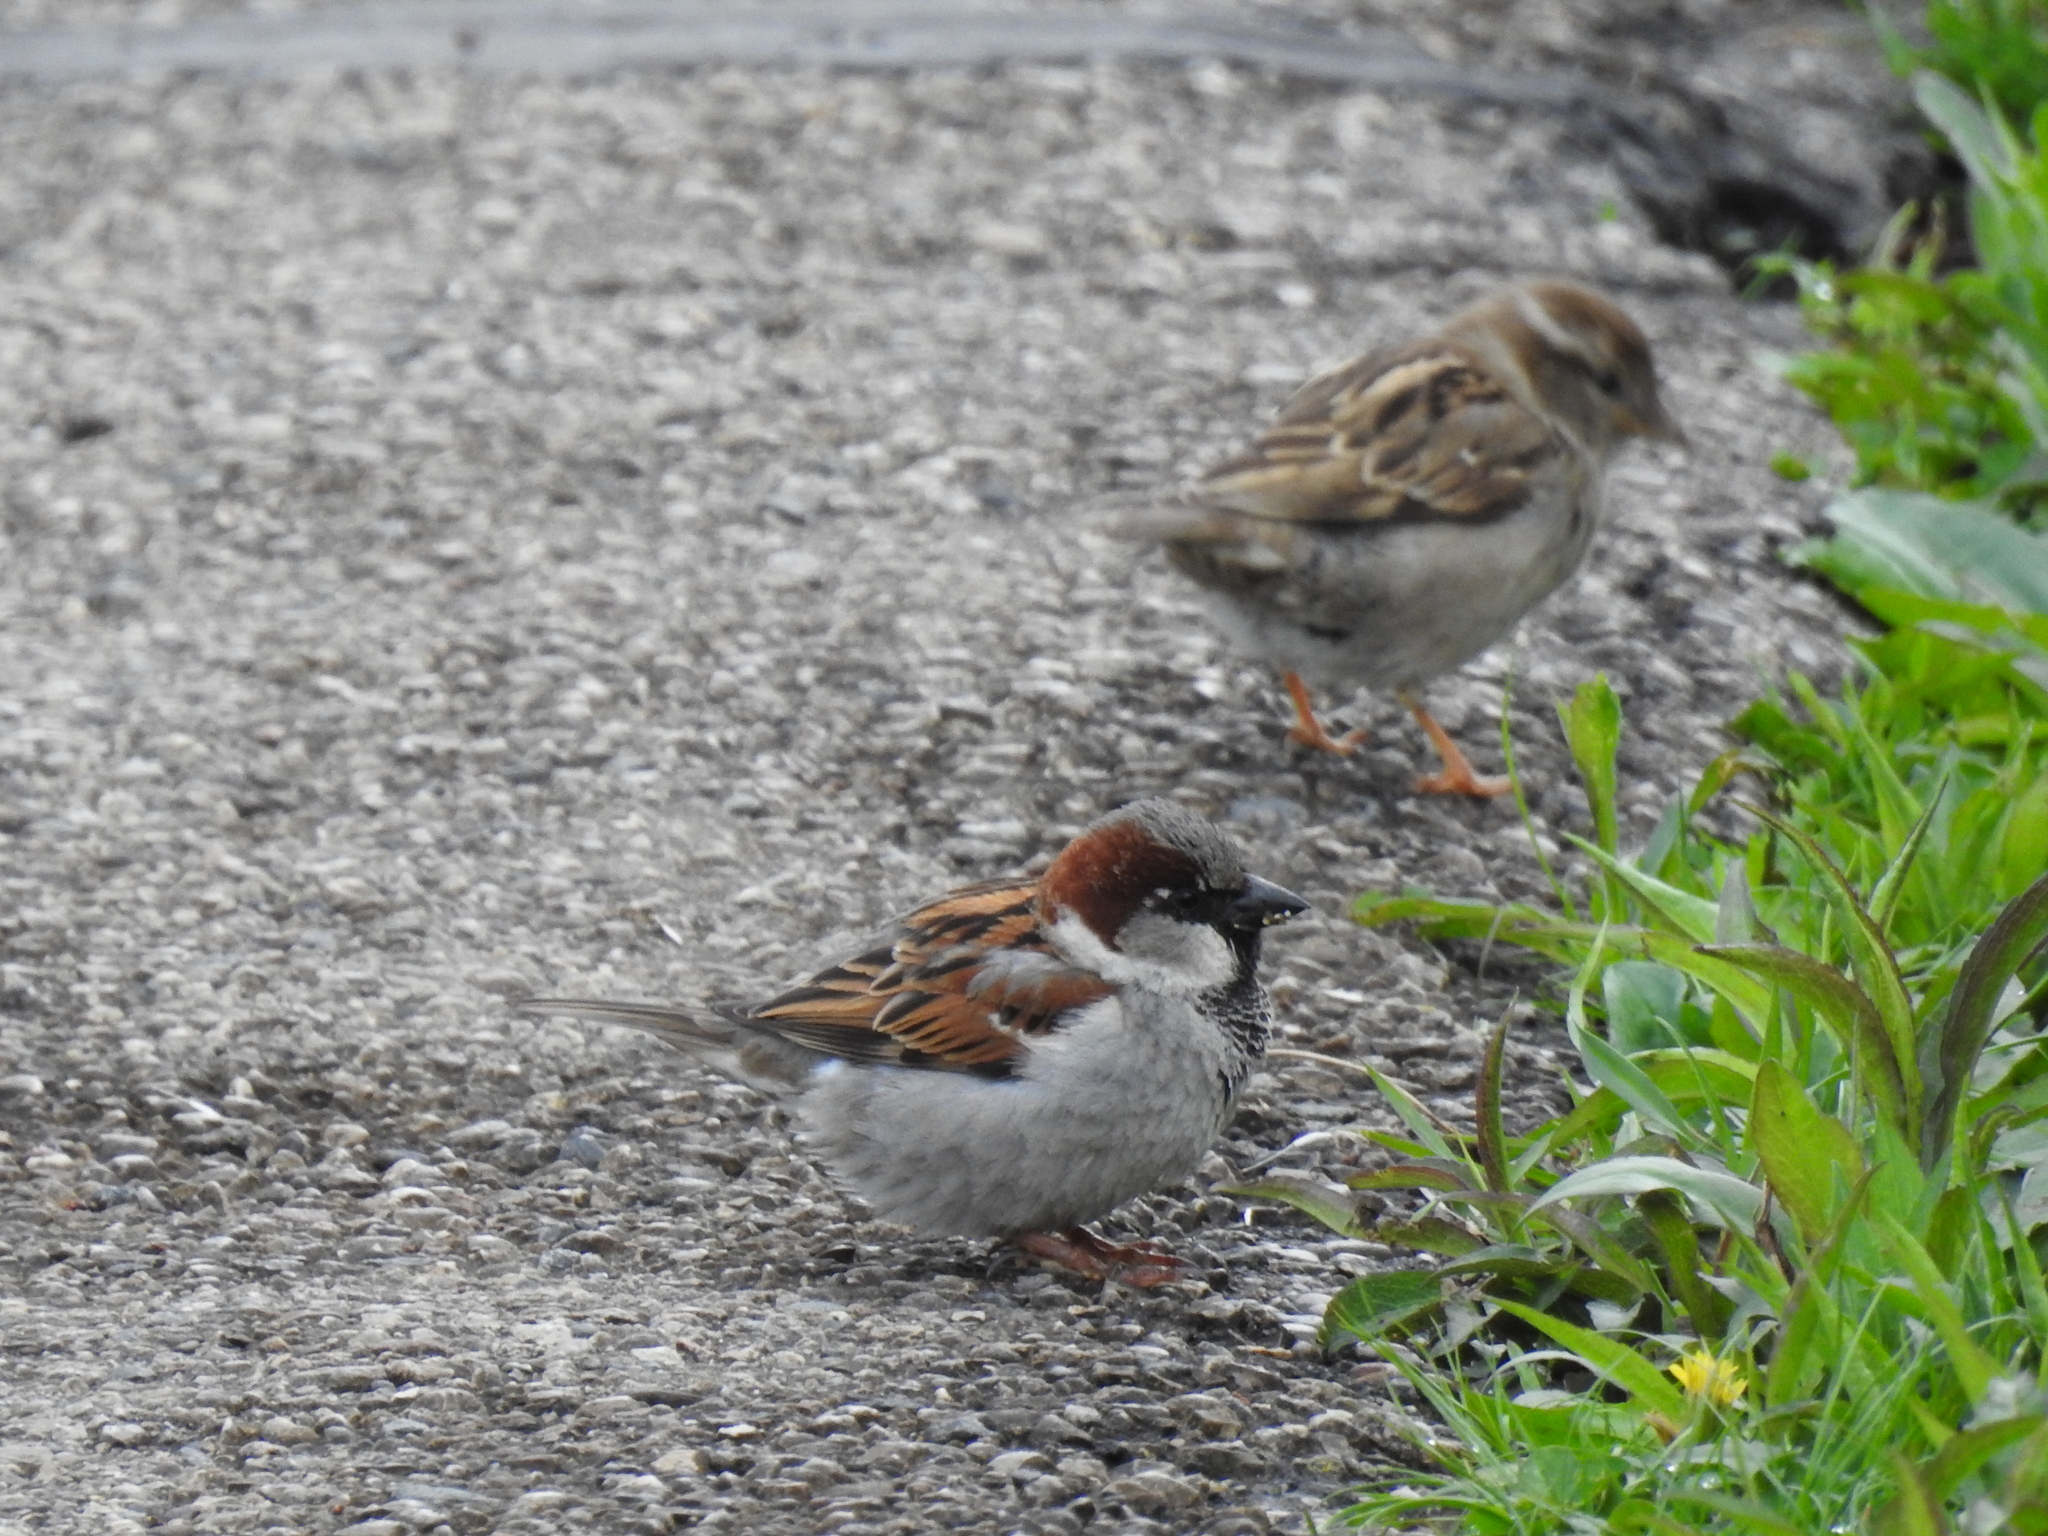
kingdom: Animalia
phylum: Chordata
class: Aves
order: Passeriformes
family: Passeridae
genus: Passer
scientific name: Passer domesticus
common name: House sparrow
